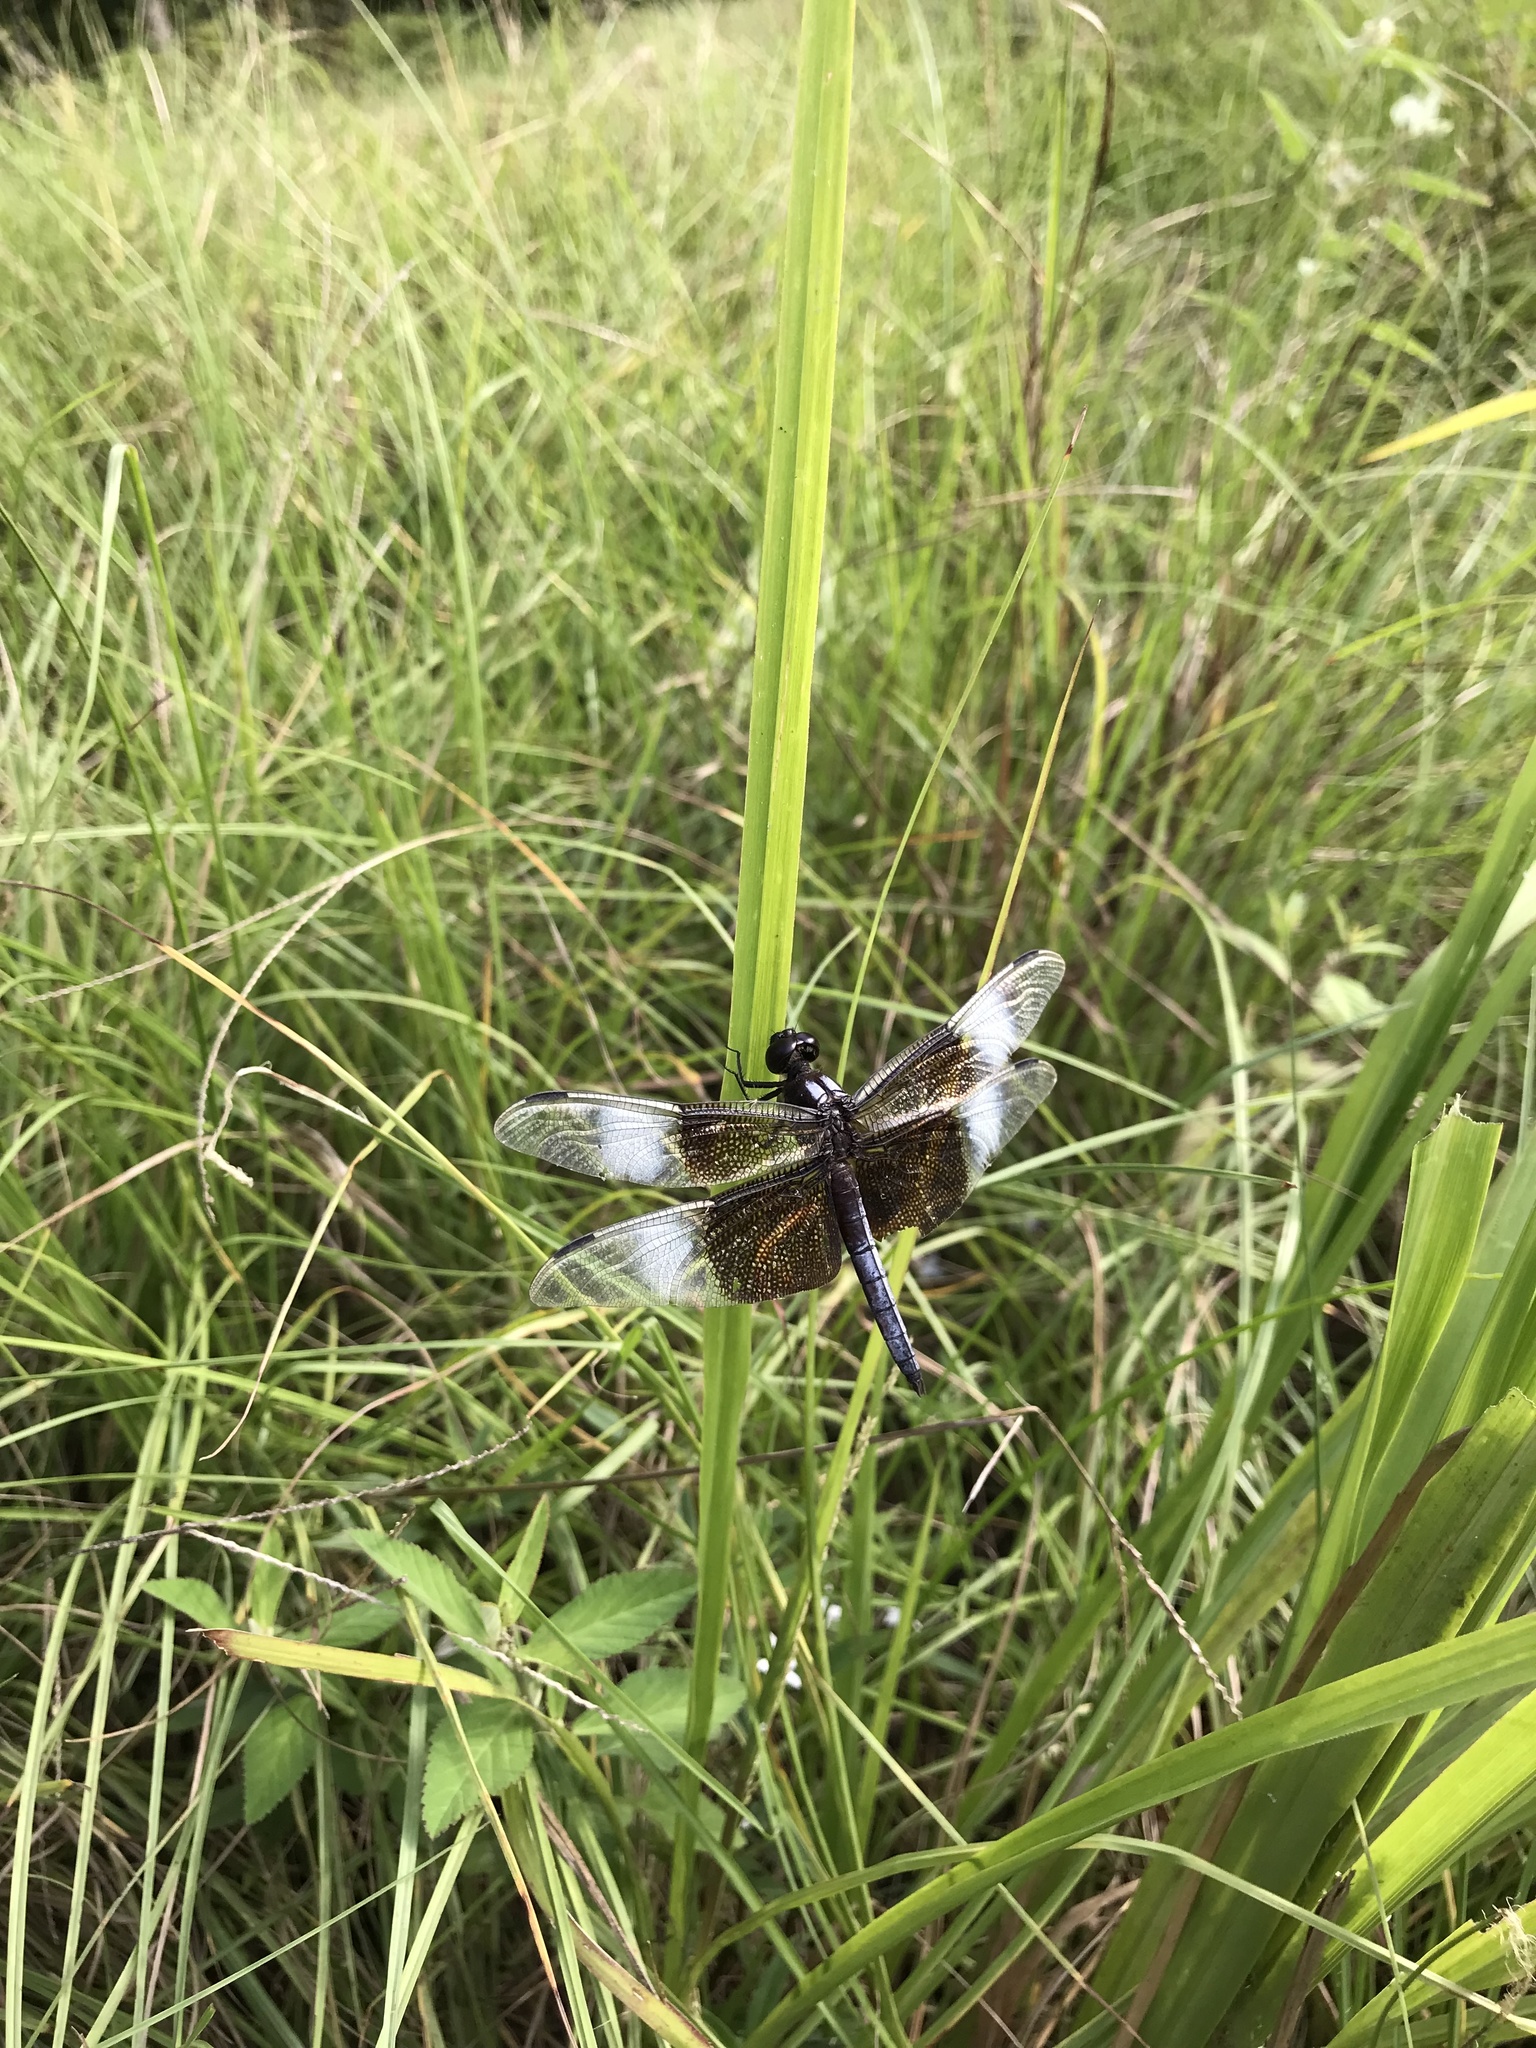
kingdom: Animalia
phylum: Arthropoda
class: Insecta
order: Odonata
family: Libellulidae
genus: Libellula
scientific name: Libellula luctuosa
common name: Widow skimmer
